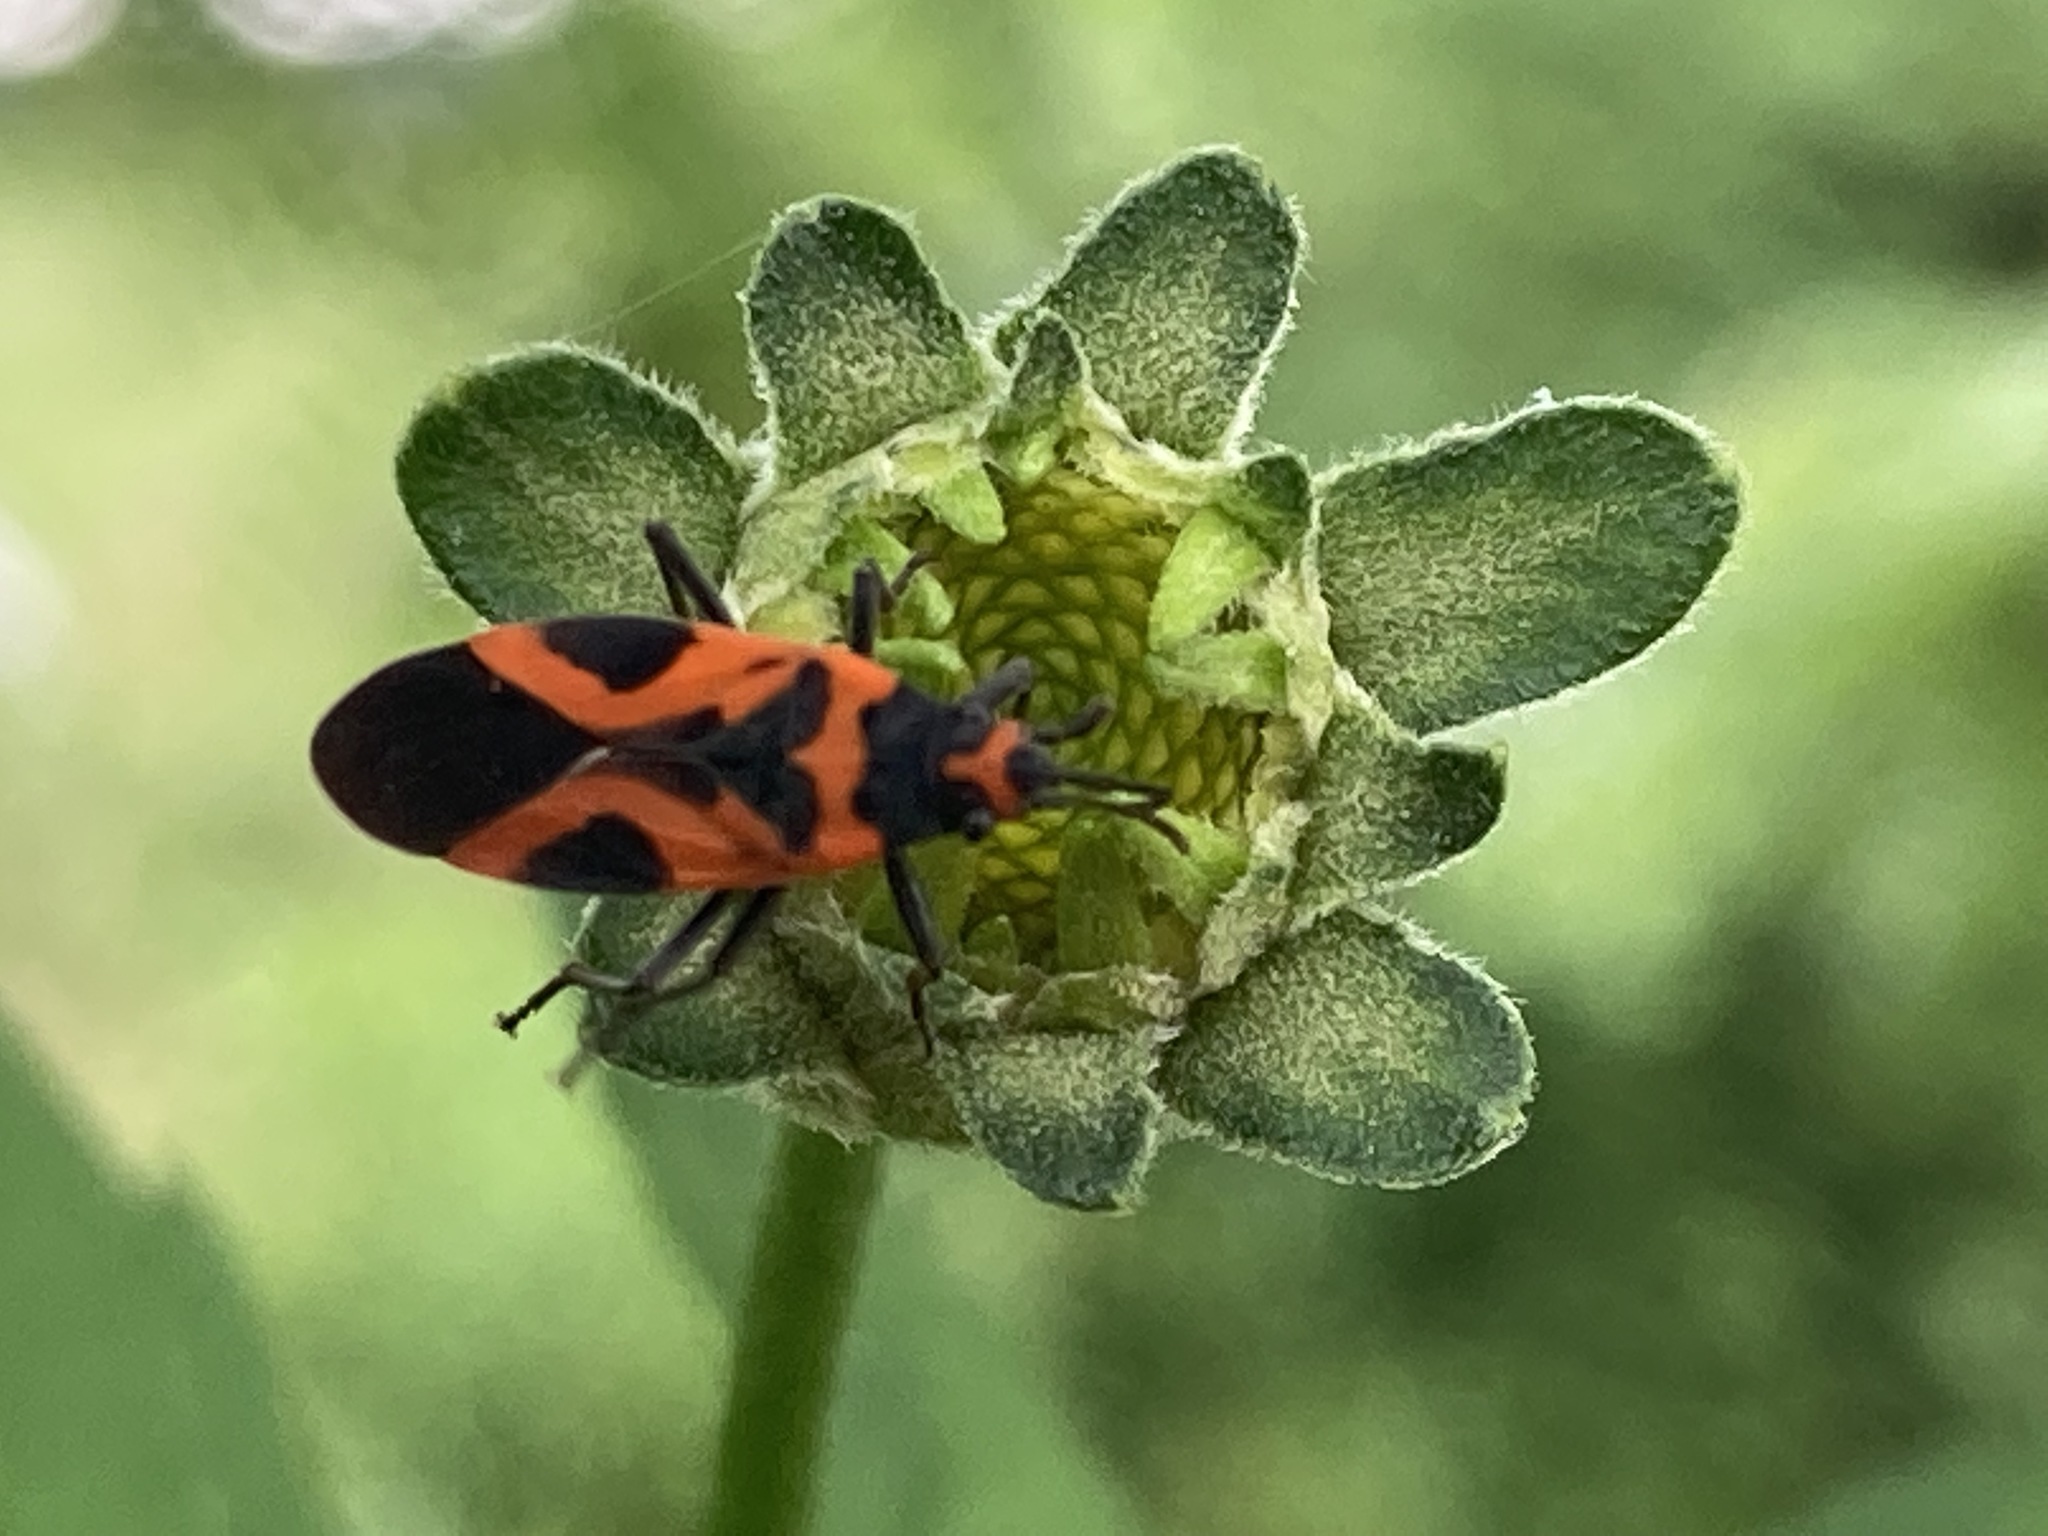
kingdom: Animalia
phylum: Arthropoda
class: Insecta
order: Hemiptera
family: Lygaeidae
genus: Lygaeus
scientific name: Lygaeus turcicus
